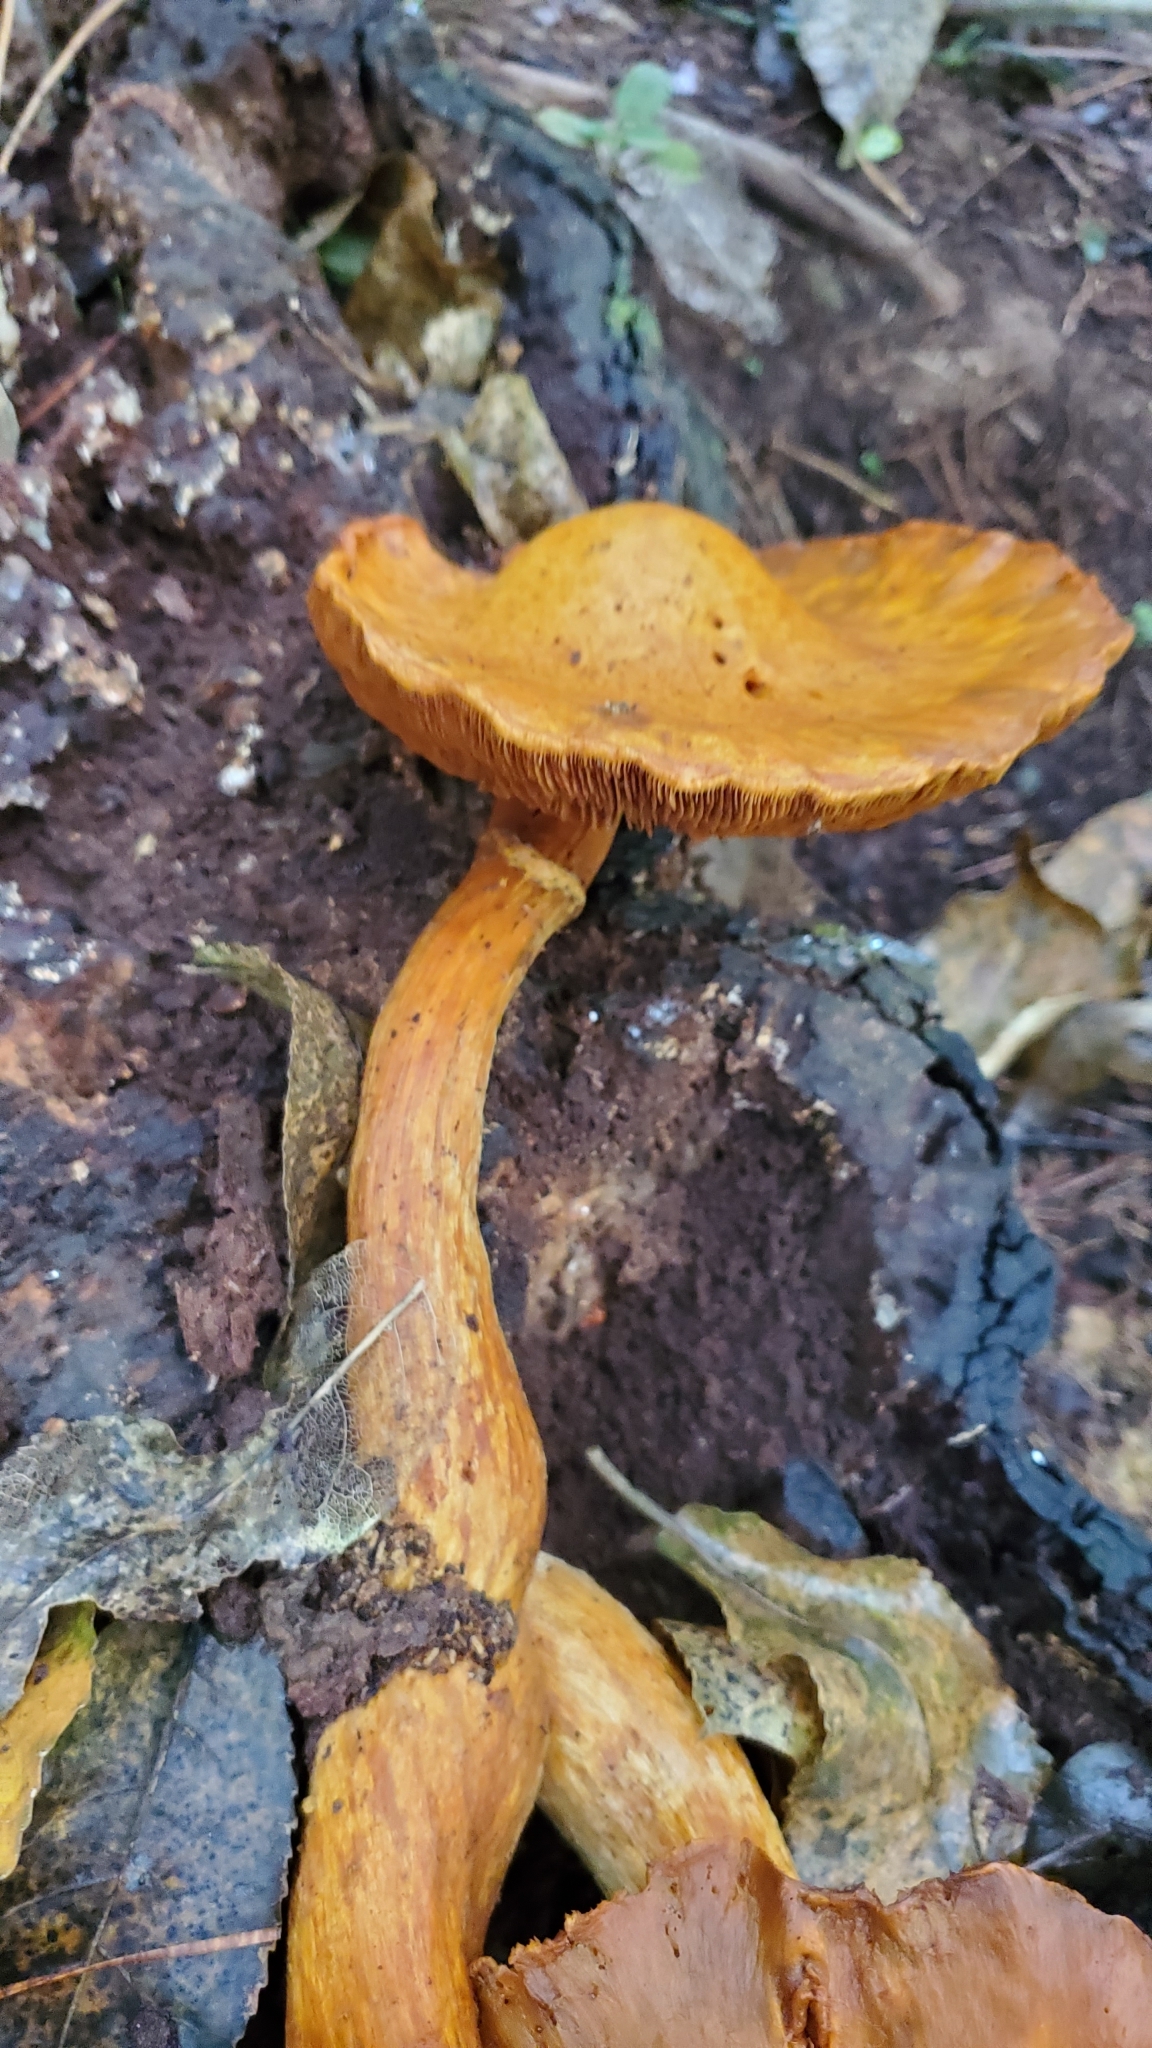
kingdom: Fungi
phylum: Basidiomycota
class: Agaricomycetes
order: Agaricales
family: Hymenogastraceae
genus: Gymnopilus
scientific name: Gymnopilus junonius
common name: Spectacular rustgill
